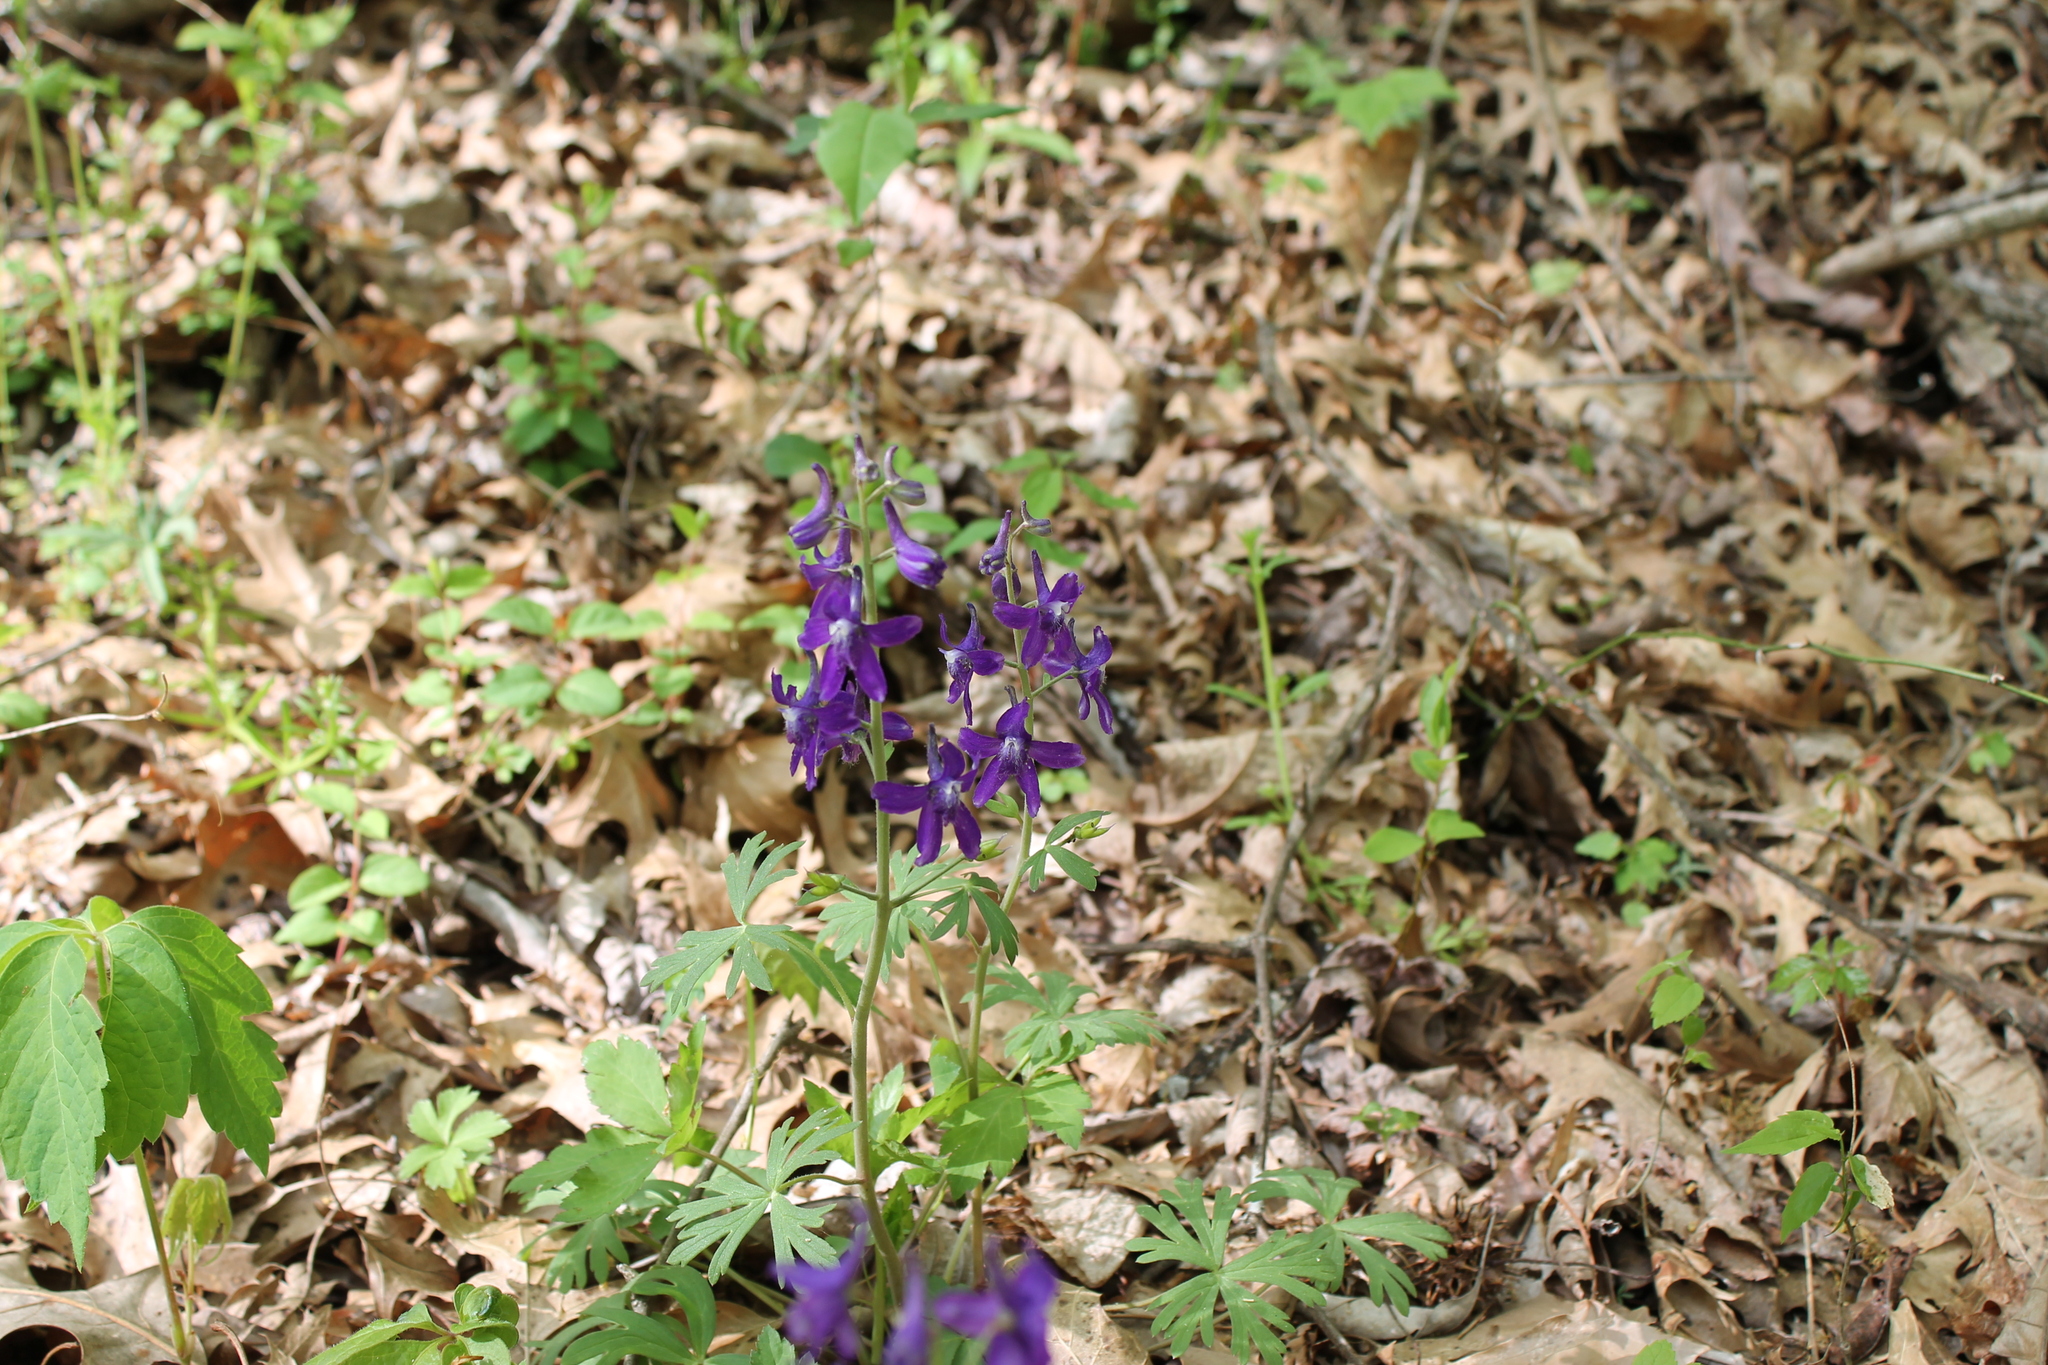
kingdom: Plantae
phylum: Tracheophyta
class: Magnoliopsida
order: Ranunculales
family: Ranunculaceae
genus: Delphinium
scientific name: Delphinium tricorne
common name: Dwarf larkspur
